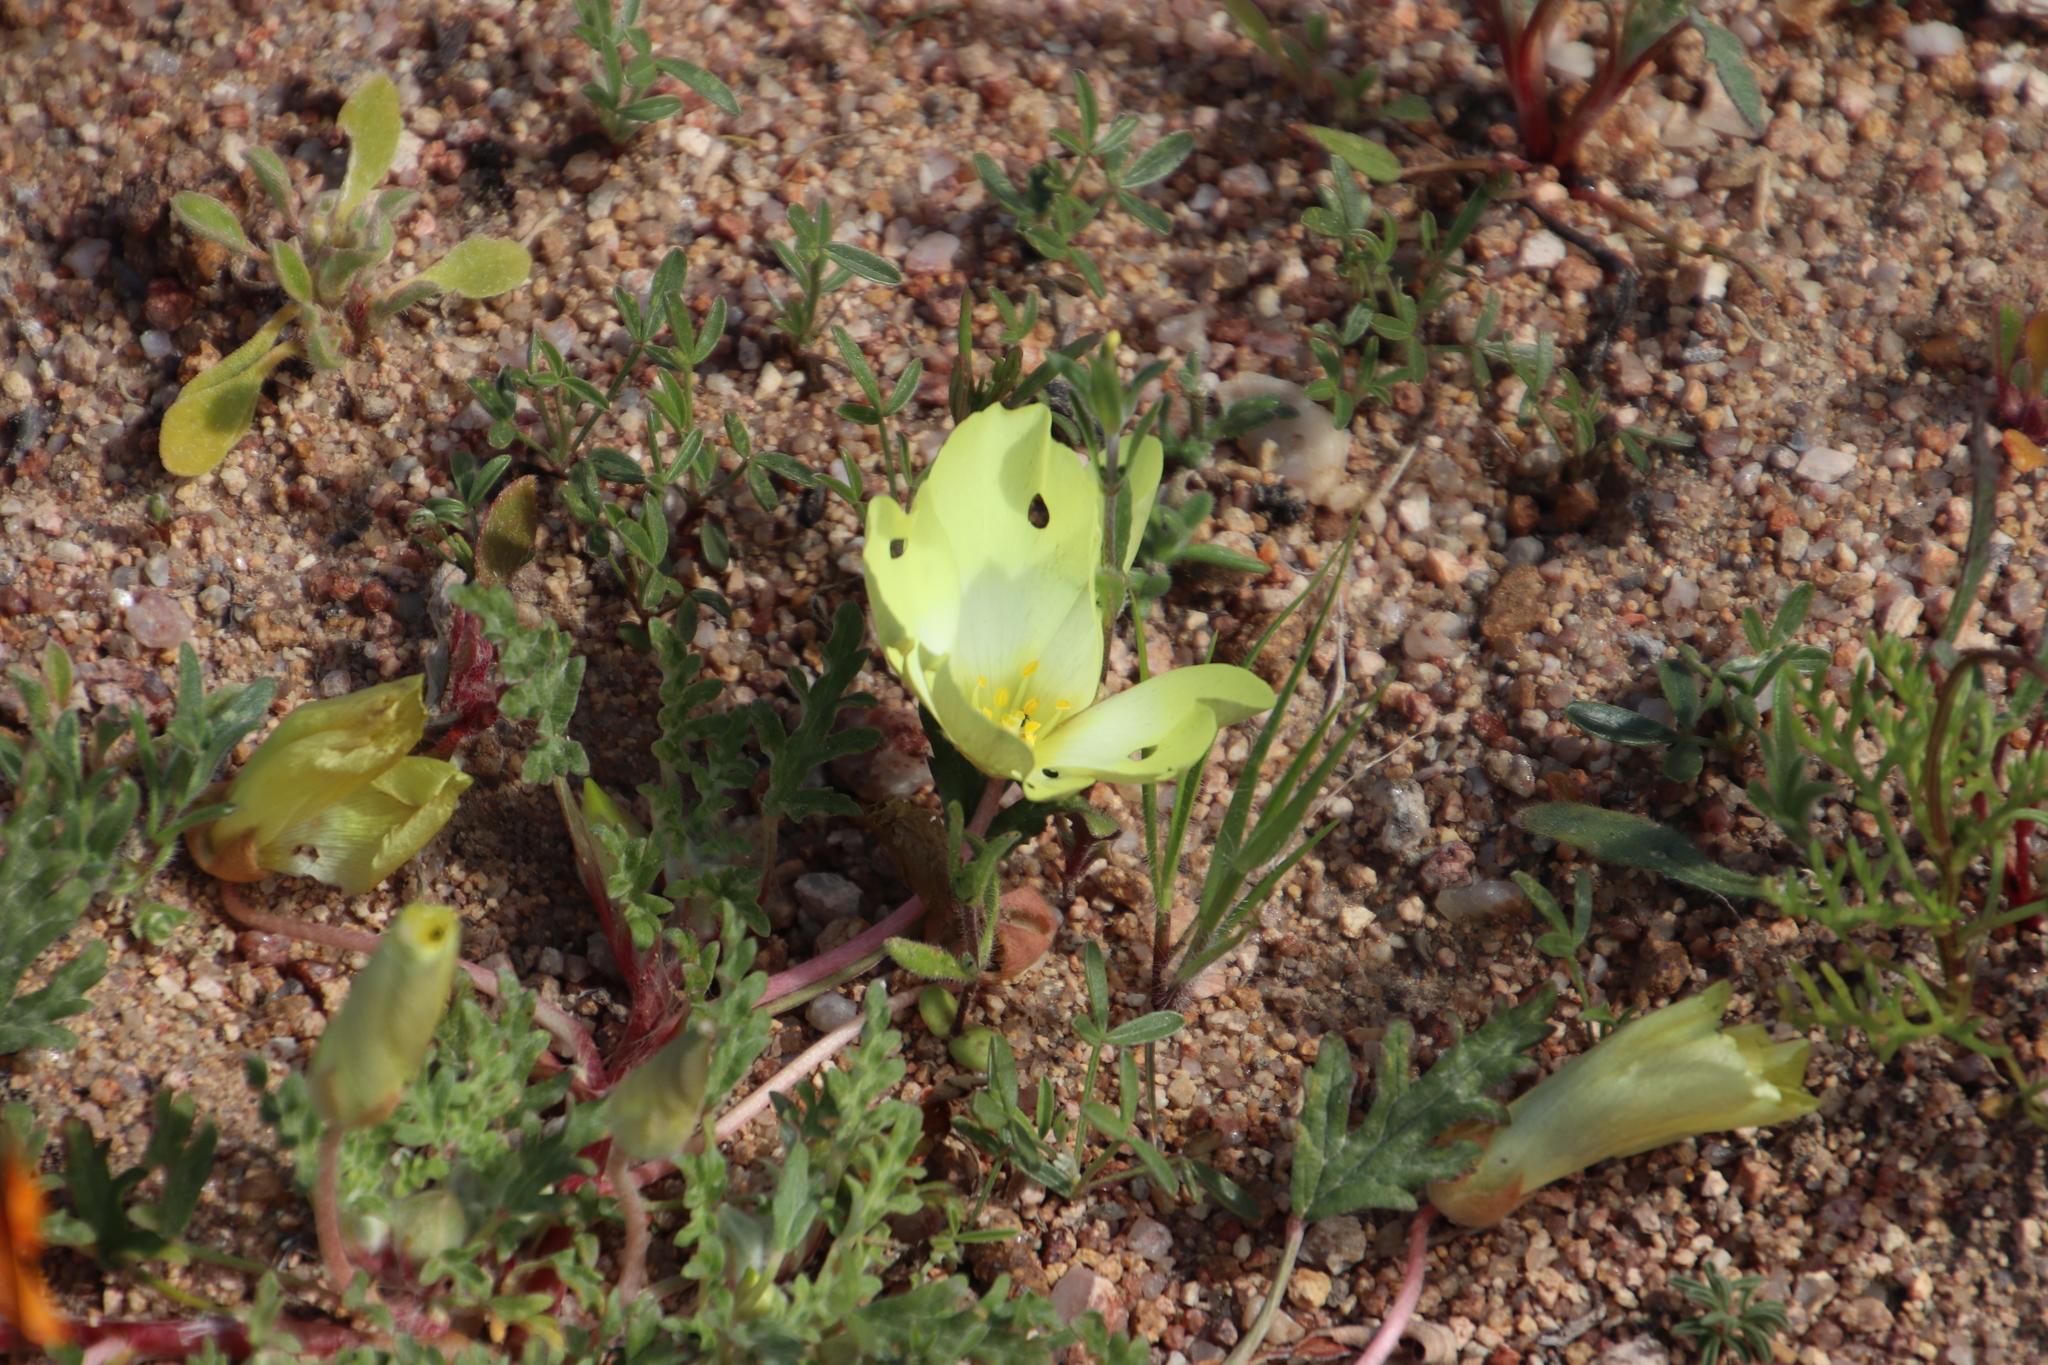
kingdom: Plantae
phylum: Tracheophyta
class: Magnoliopsida
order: Malvales
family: Neuradaceae
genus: Grielum
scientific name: Grielum humifusum
